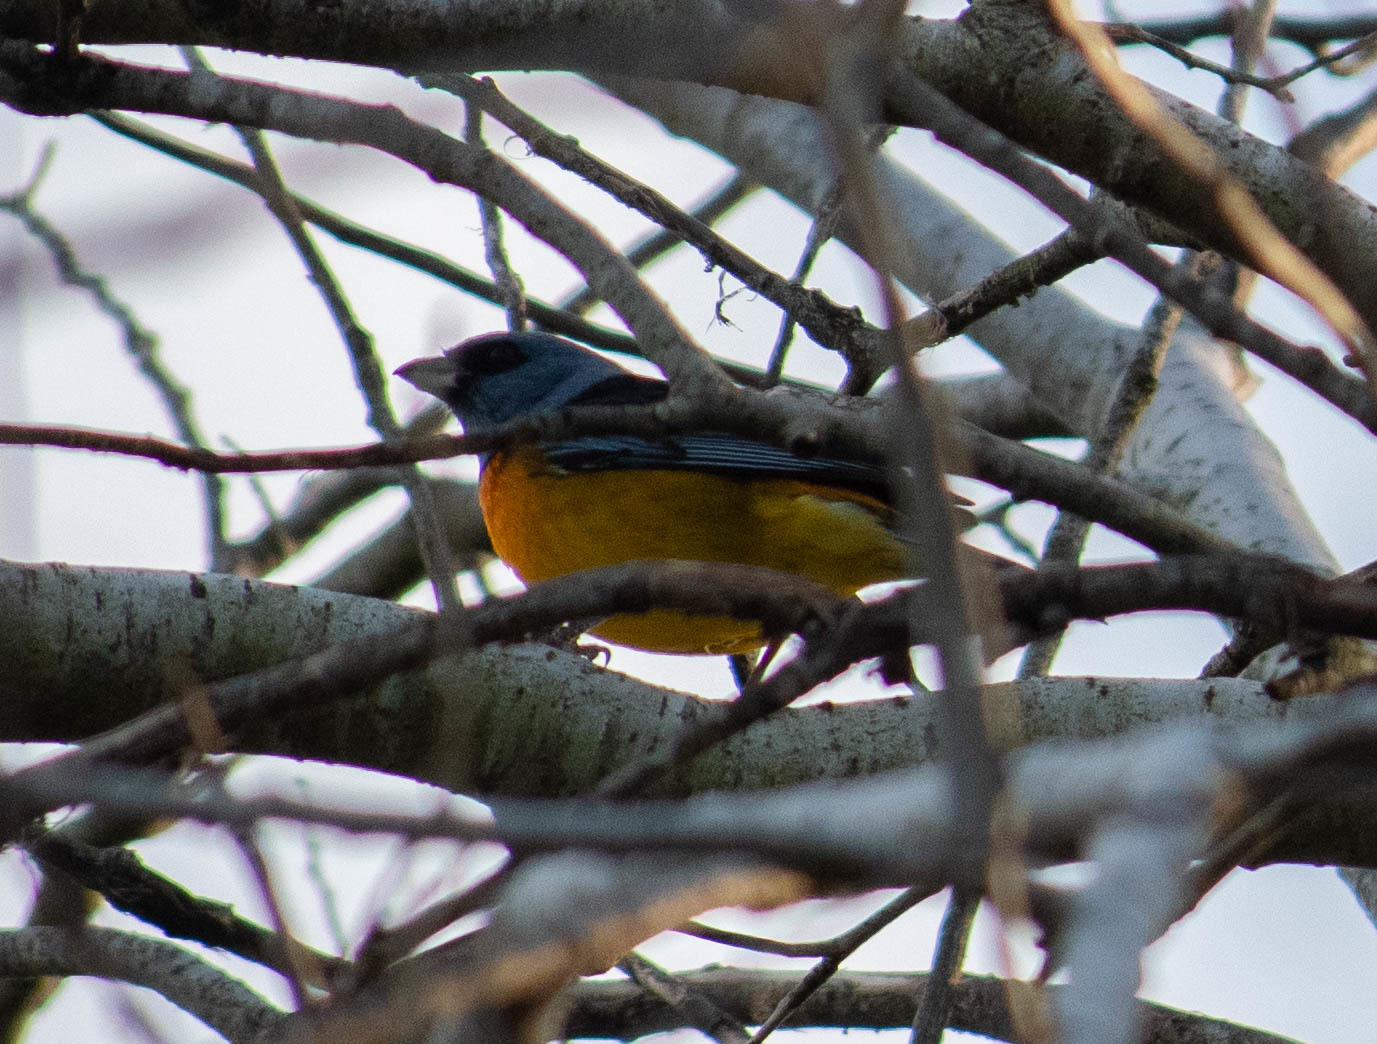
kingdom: Animalia
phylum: Chordata
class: Aves
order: Passeriformes
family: Thraupidae
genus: Rauenia
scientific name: Rauenia bonariensis
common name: Blue-and-yellow tanager
